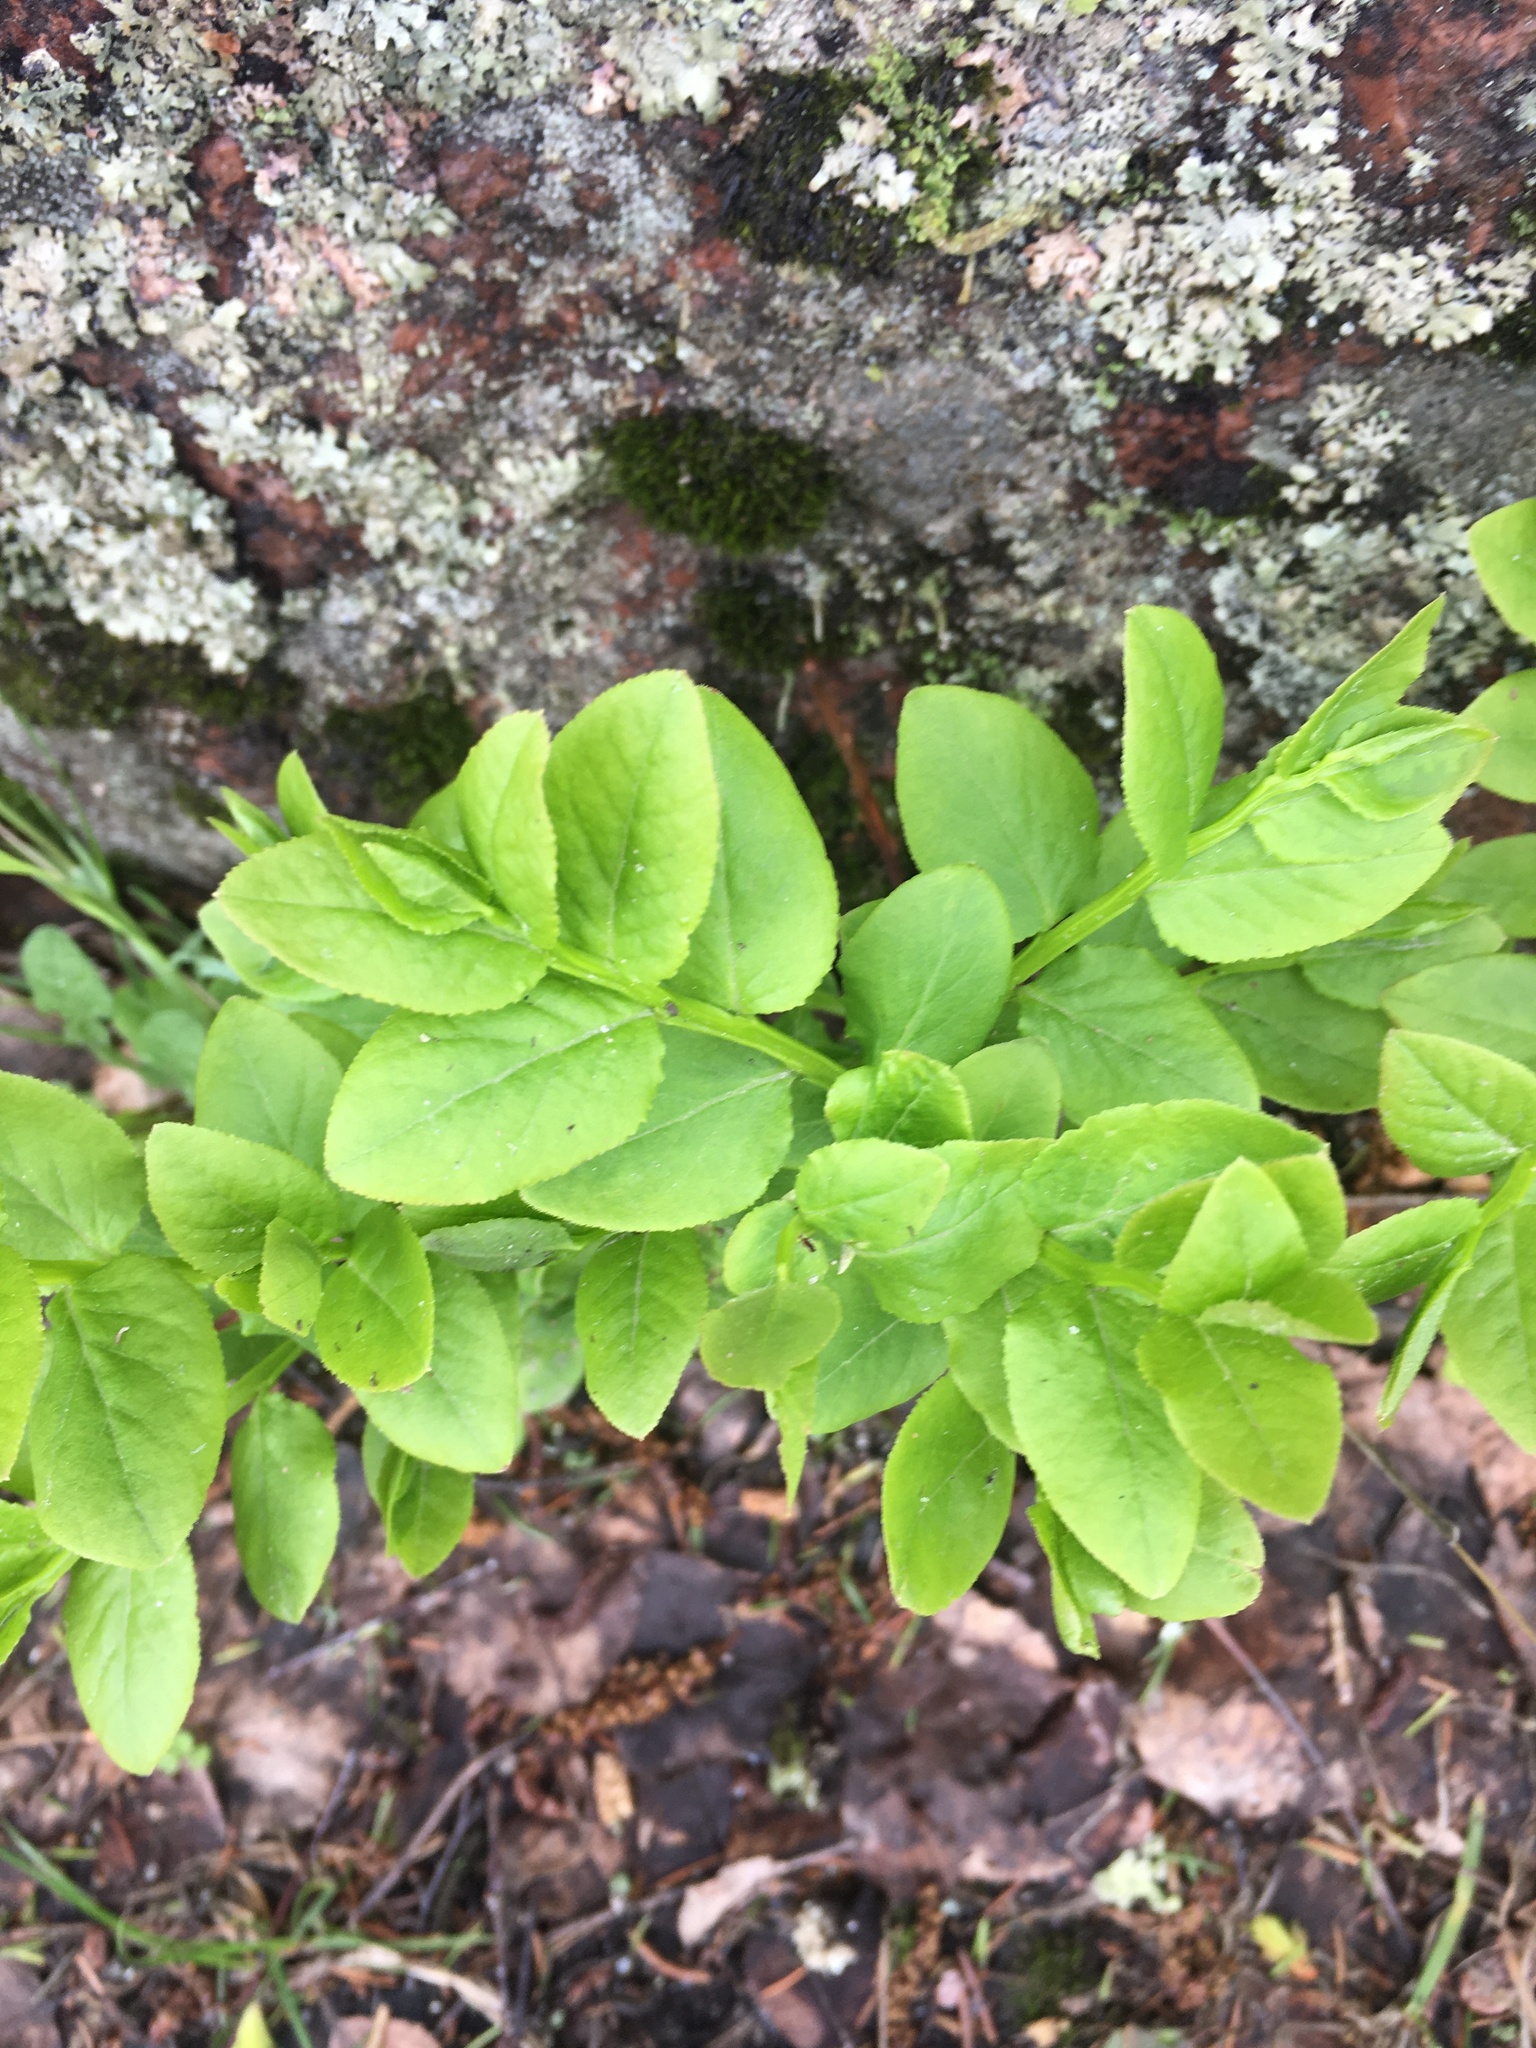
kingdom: Plantae
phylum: Tracheophyta
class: Magnoliopsida
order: Ericales
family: Ericaceae
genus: Vaccinium
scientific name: Vaccinium myrtillus
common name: Bilberry
